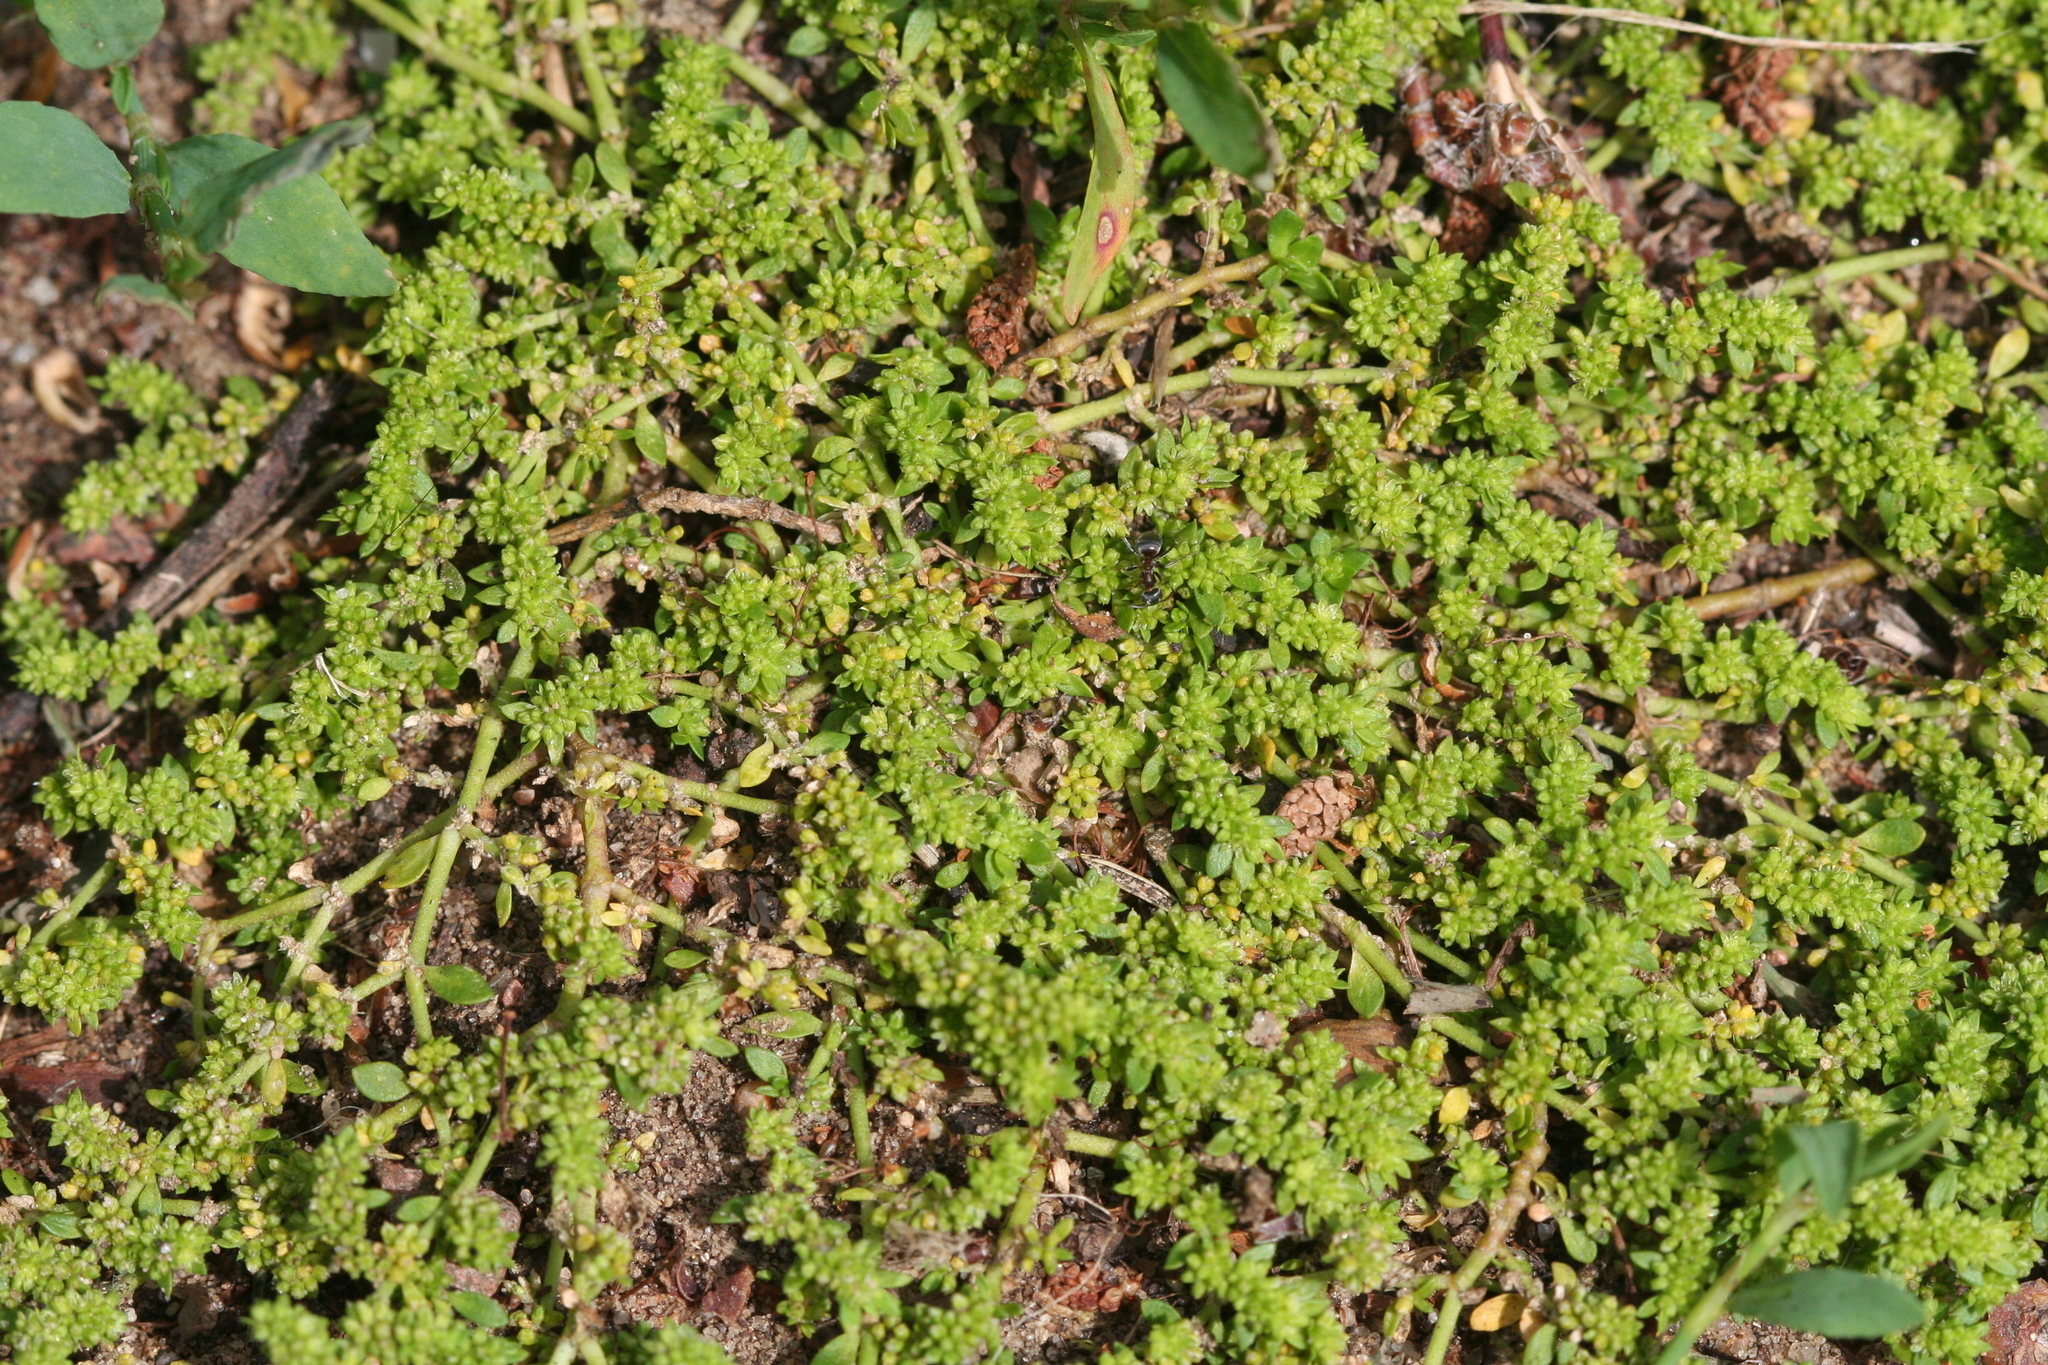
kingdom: Plantae
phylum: Tracheophyta
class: Magnoliopsida
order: Caryophyllales
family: Caryophyllaceae
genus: Herniaria
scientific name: Herniaria glabra
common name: Smooth rupturewort
